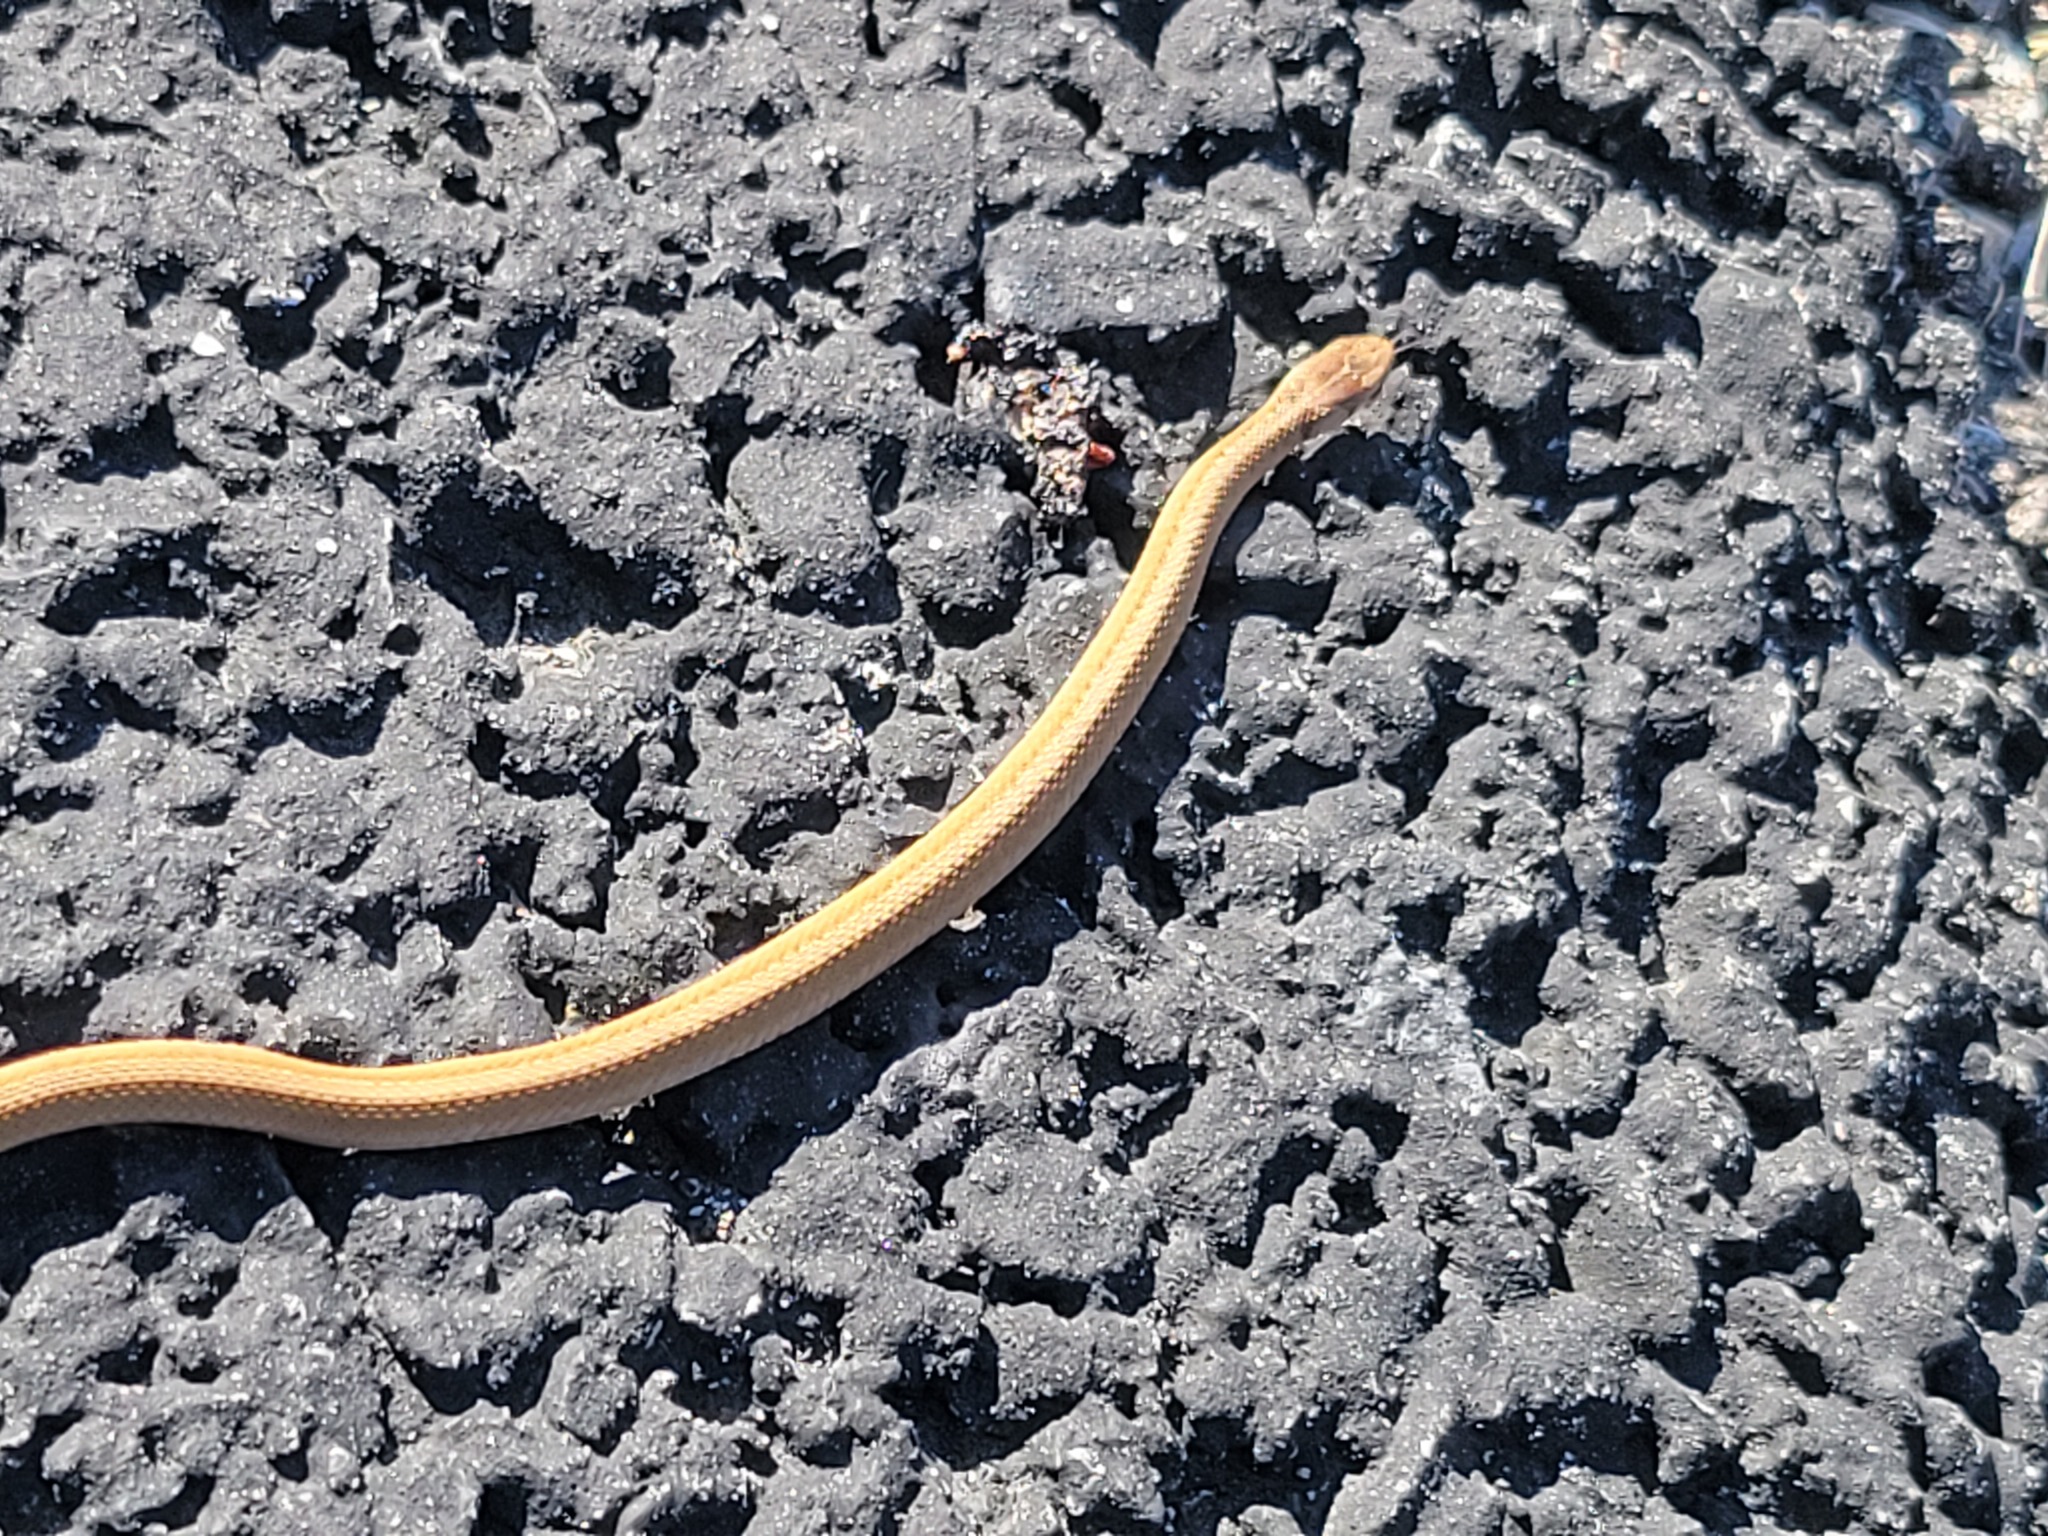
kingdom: Animalia
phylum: Chordata
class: Squamata
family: Colubridae
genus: Storeria
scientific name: Storeria dekayi
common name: (dekay’s) brown snake
